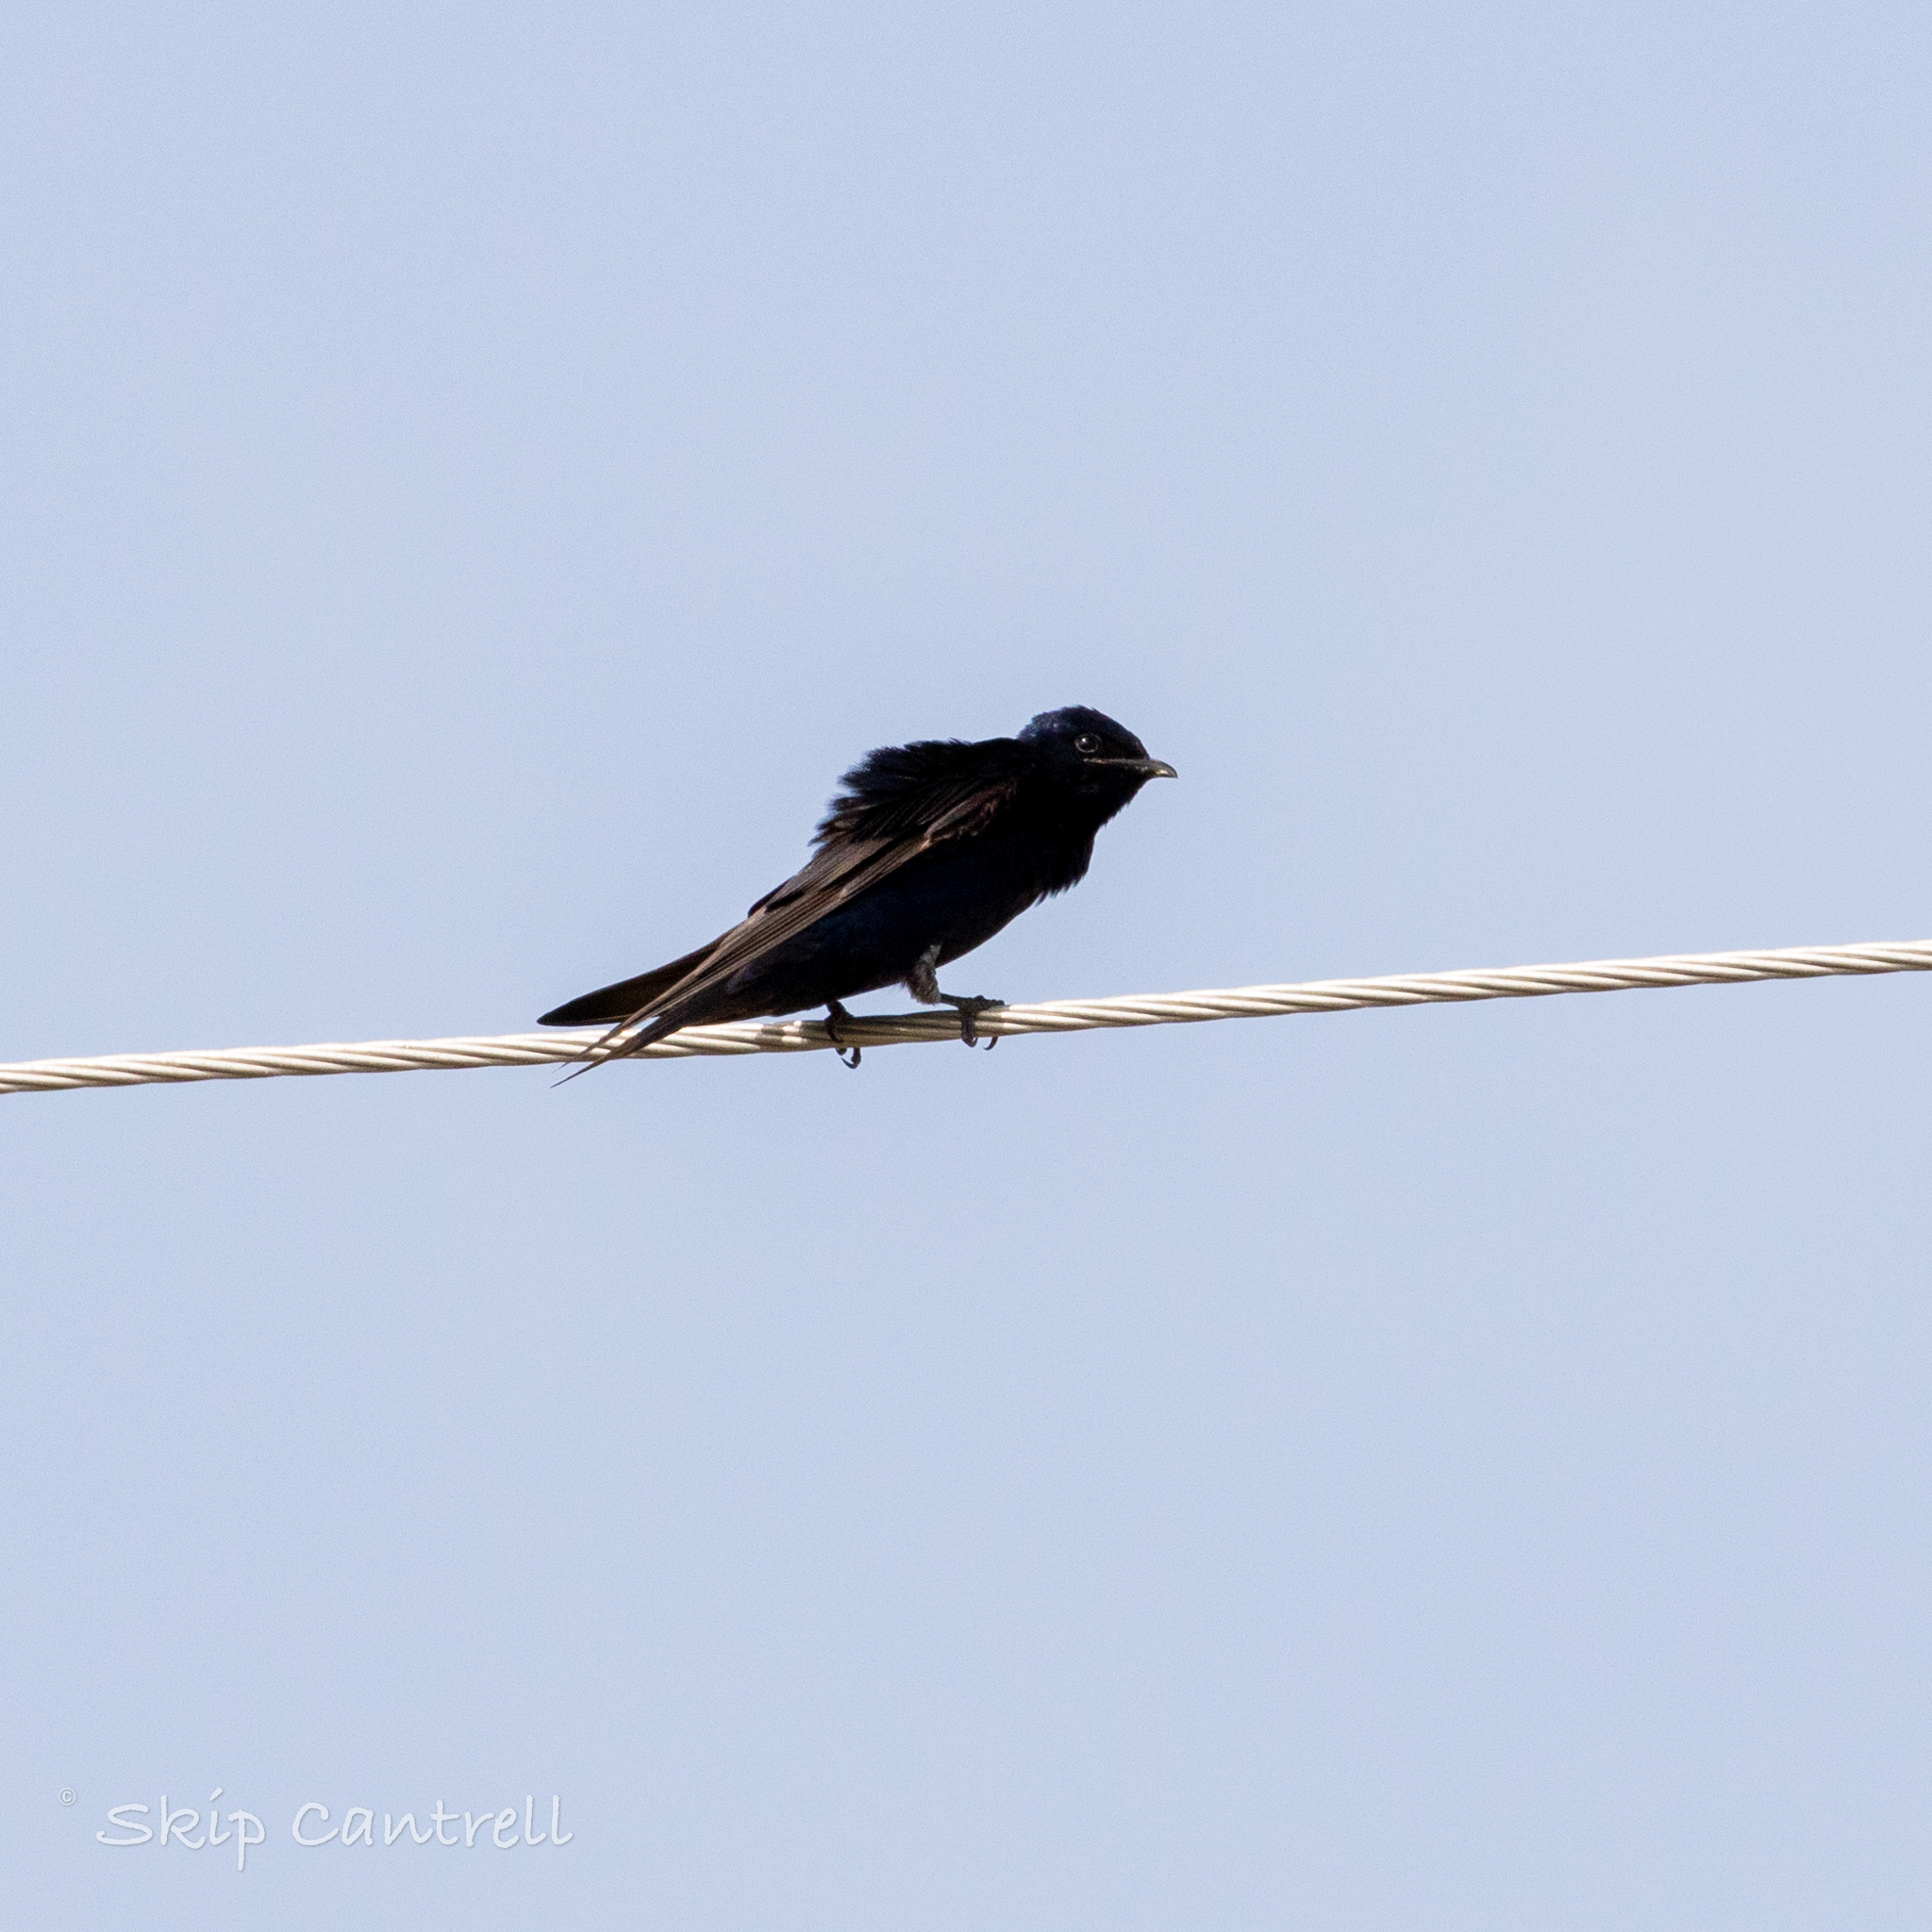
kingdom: Animalia
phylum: Chordata
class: Aves
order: Passeriformes
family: Hirundinidae
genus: Progne
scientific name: Progne subis
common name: Purple martin
